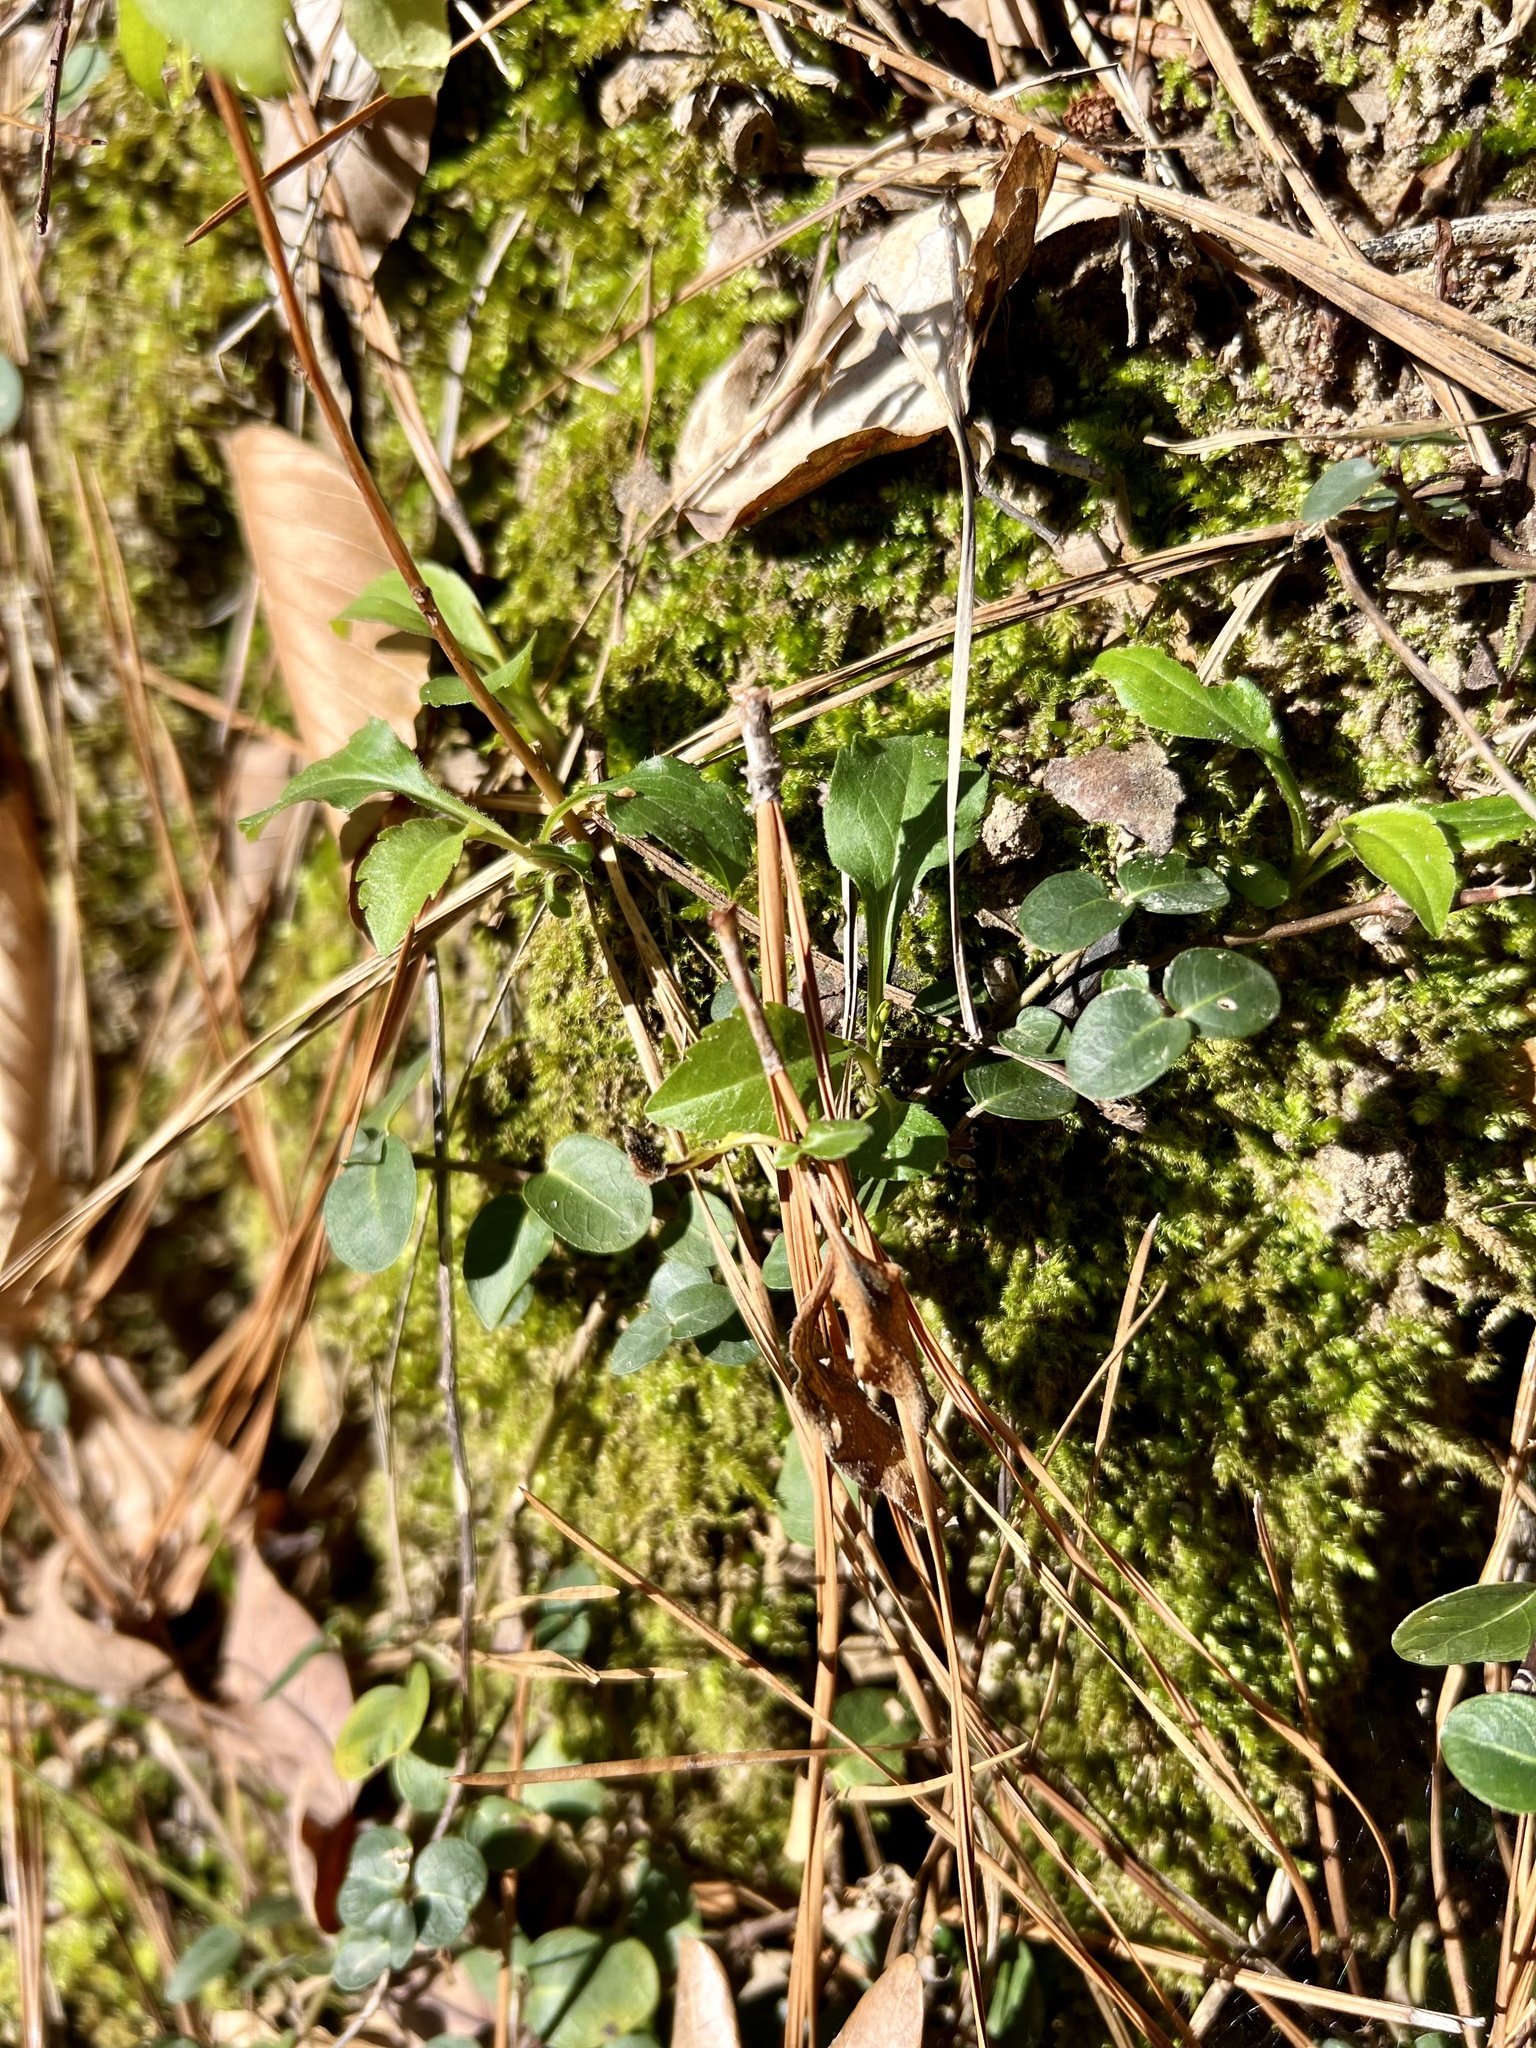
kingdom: Plantae
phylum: Tracheophyta
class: Magnoliopsida
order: Gentianales
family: Rubiaceae
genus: Mitchella
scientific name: Mitchella repens
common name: Partridge-berry
